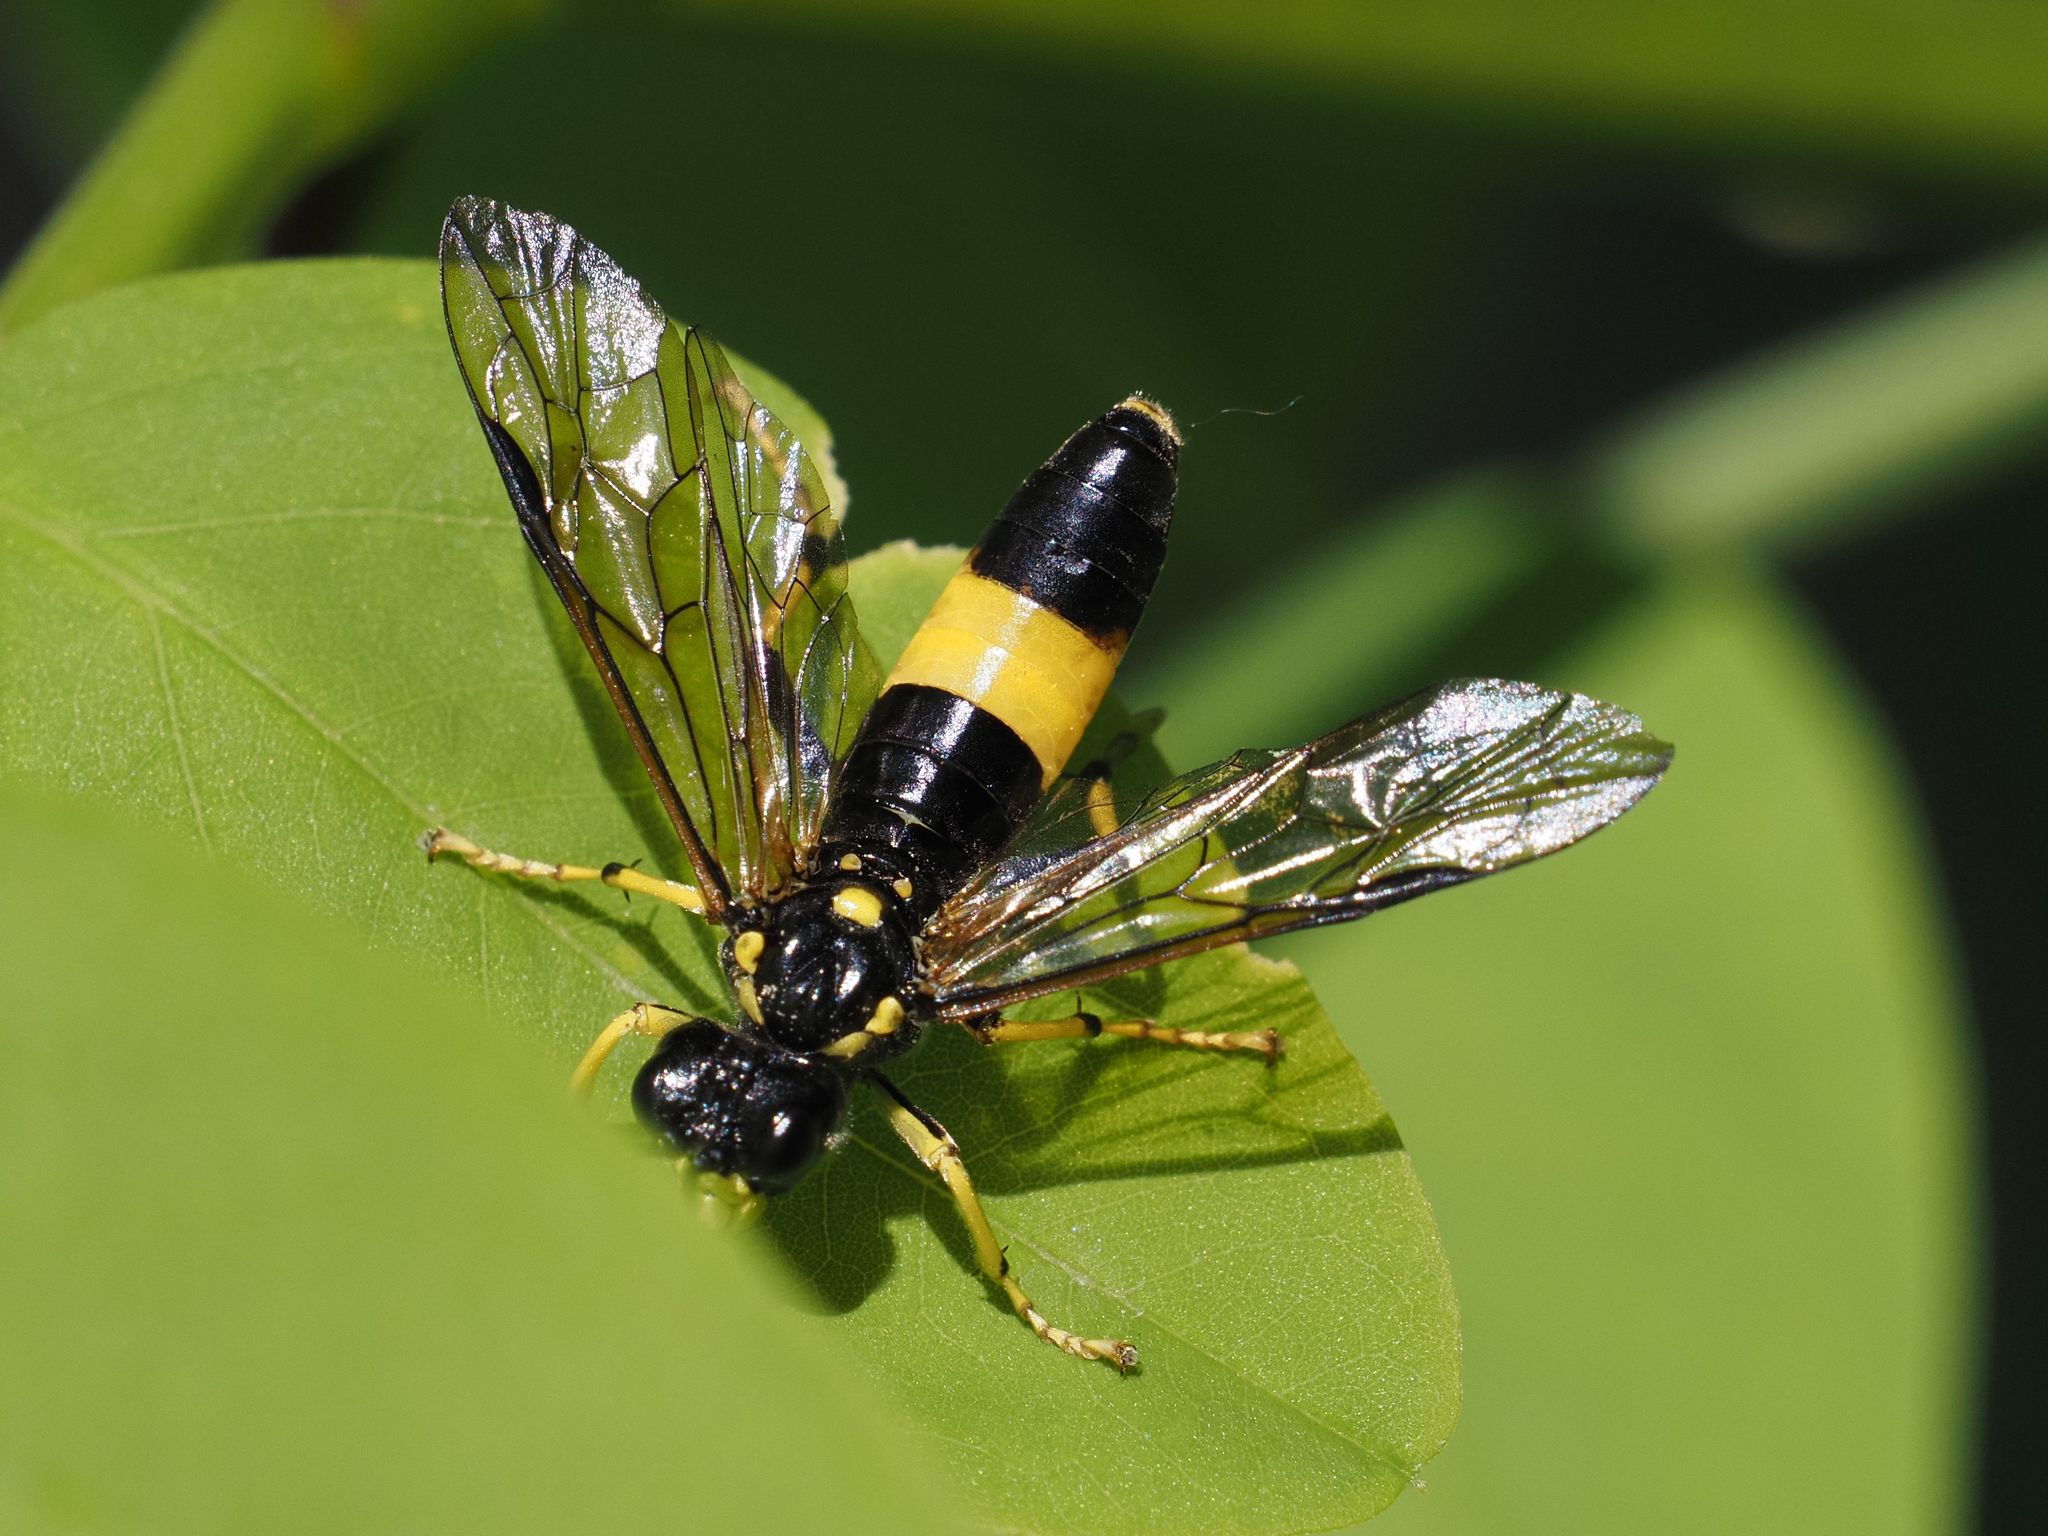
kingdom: Animalia
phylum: Arthropoda
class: Insecta
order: Hymenoptera
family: Tenthredinidae
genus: Tenthredo
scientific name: Tenthredo maculata
